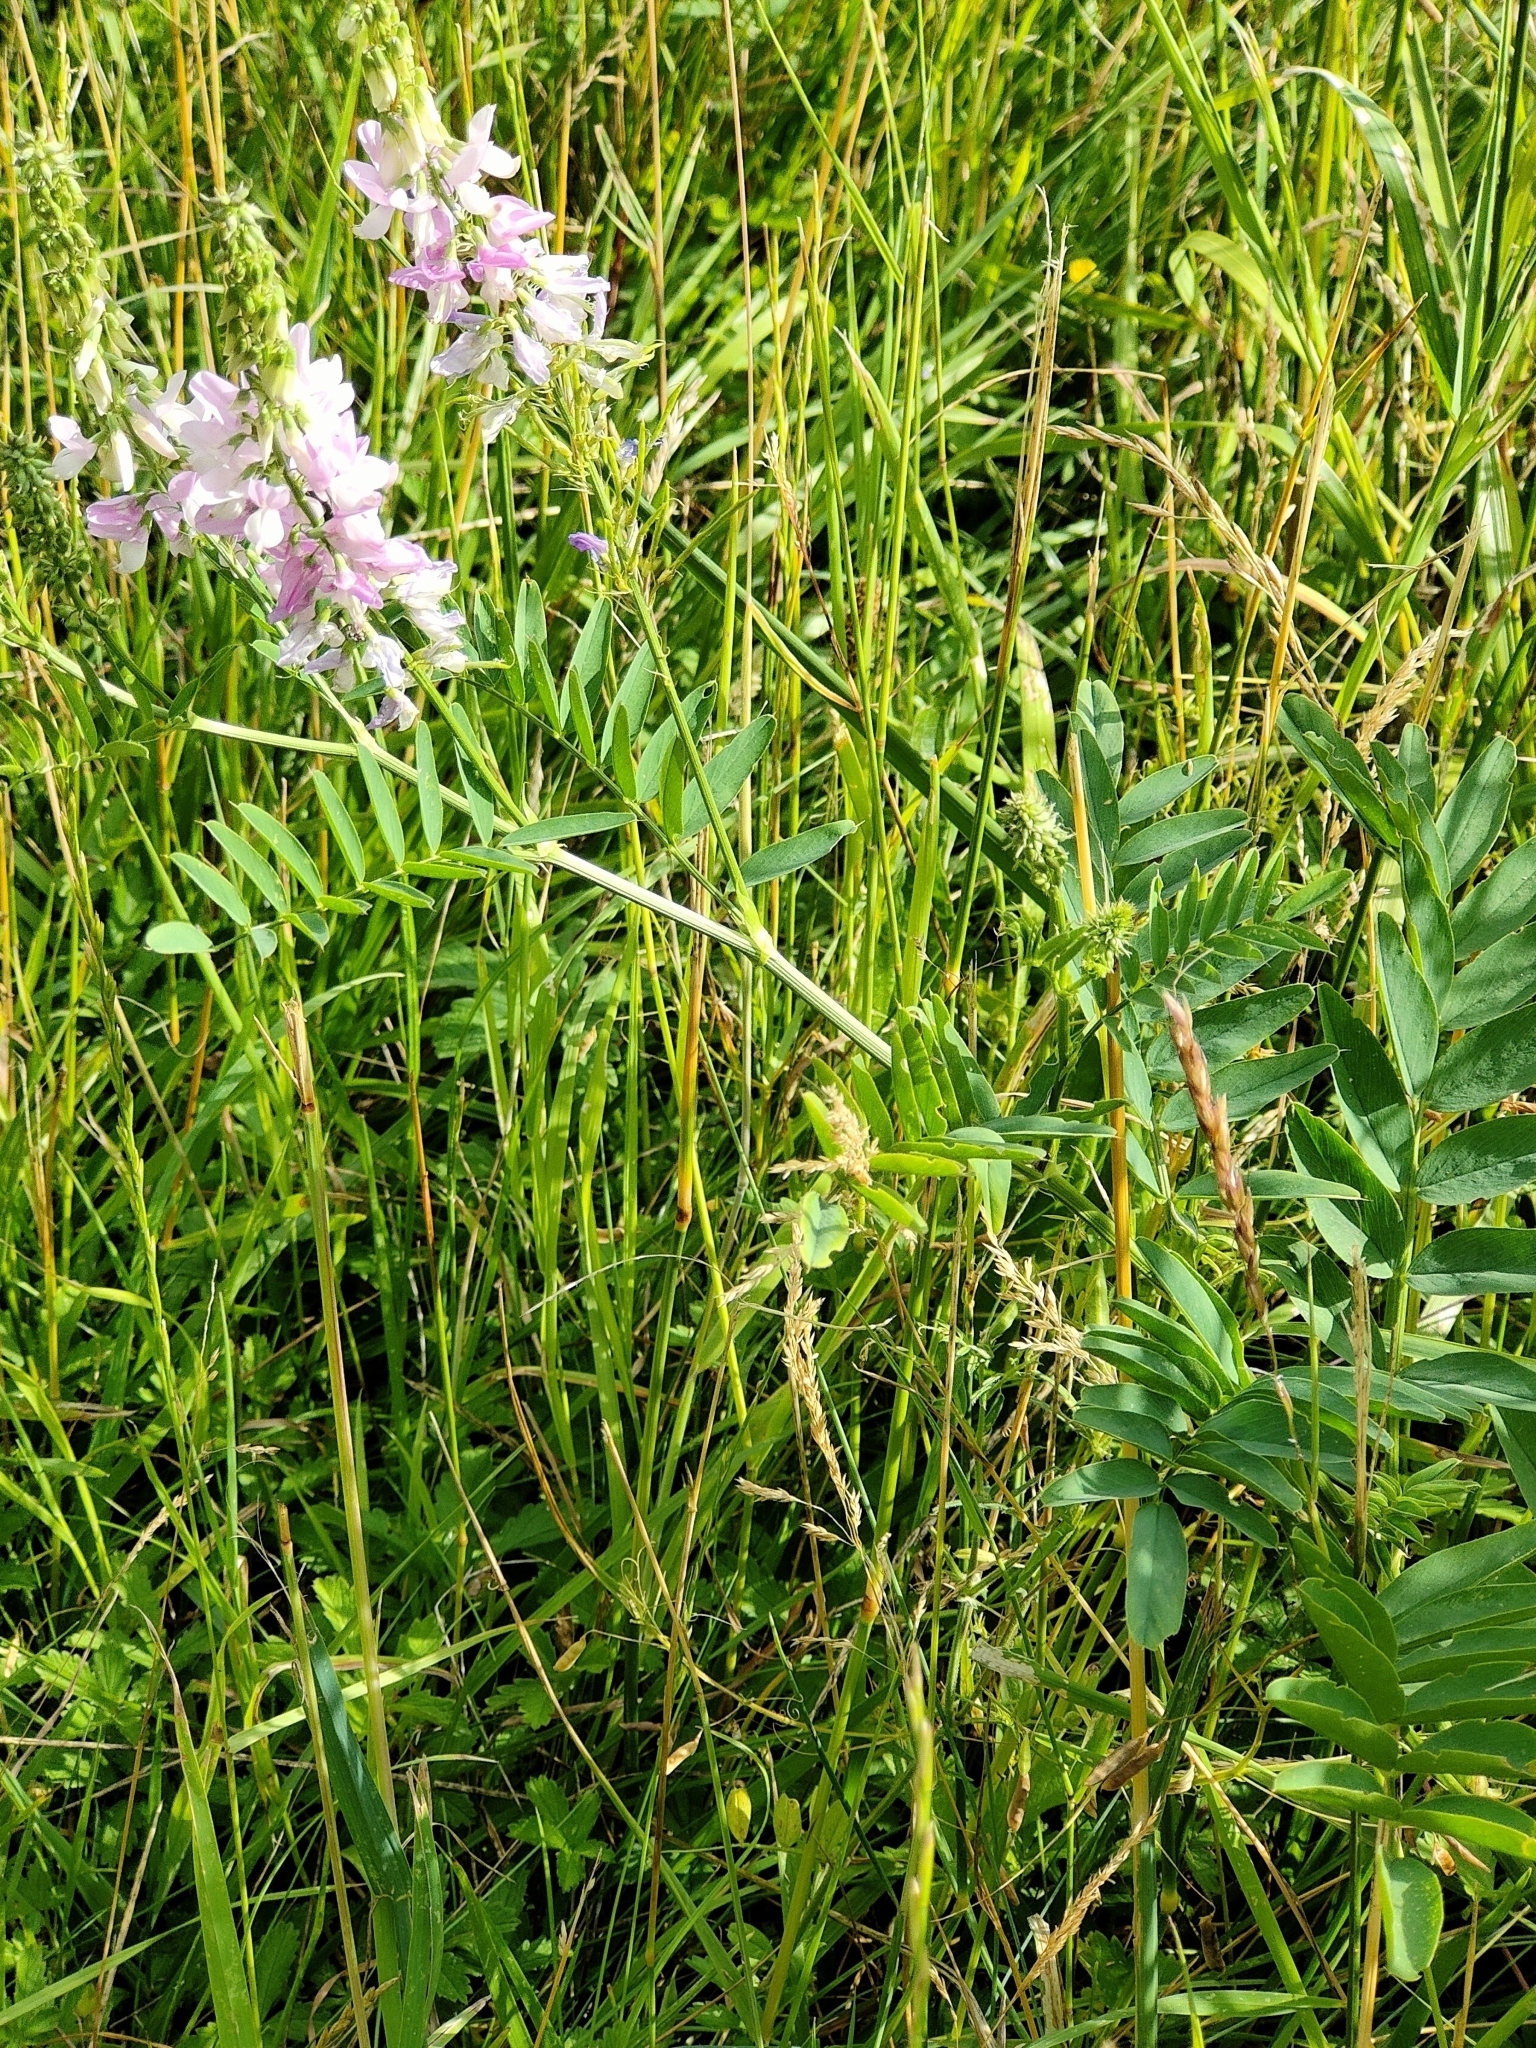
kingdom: Plantae
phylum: Tracheophyta
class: Magnoliopsida
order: Fabales
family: Fabaceae
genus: Galega
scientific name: Galega officinalis
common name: Goat's-rue
